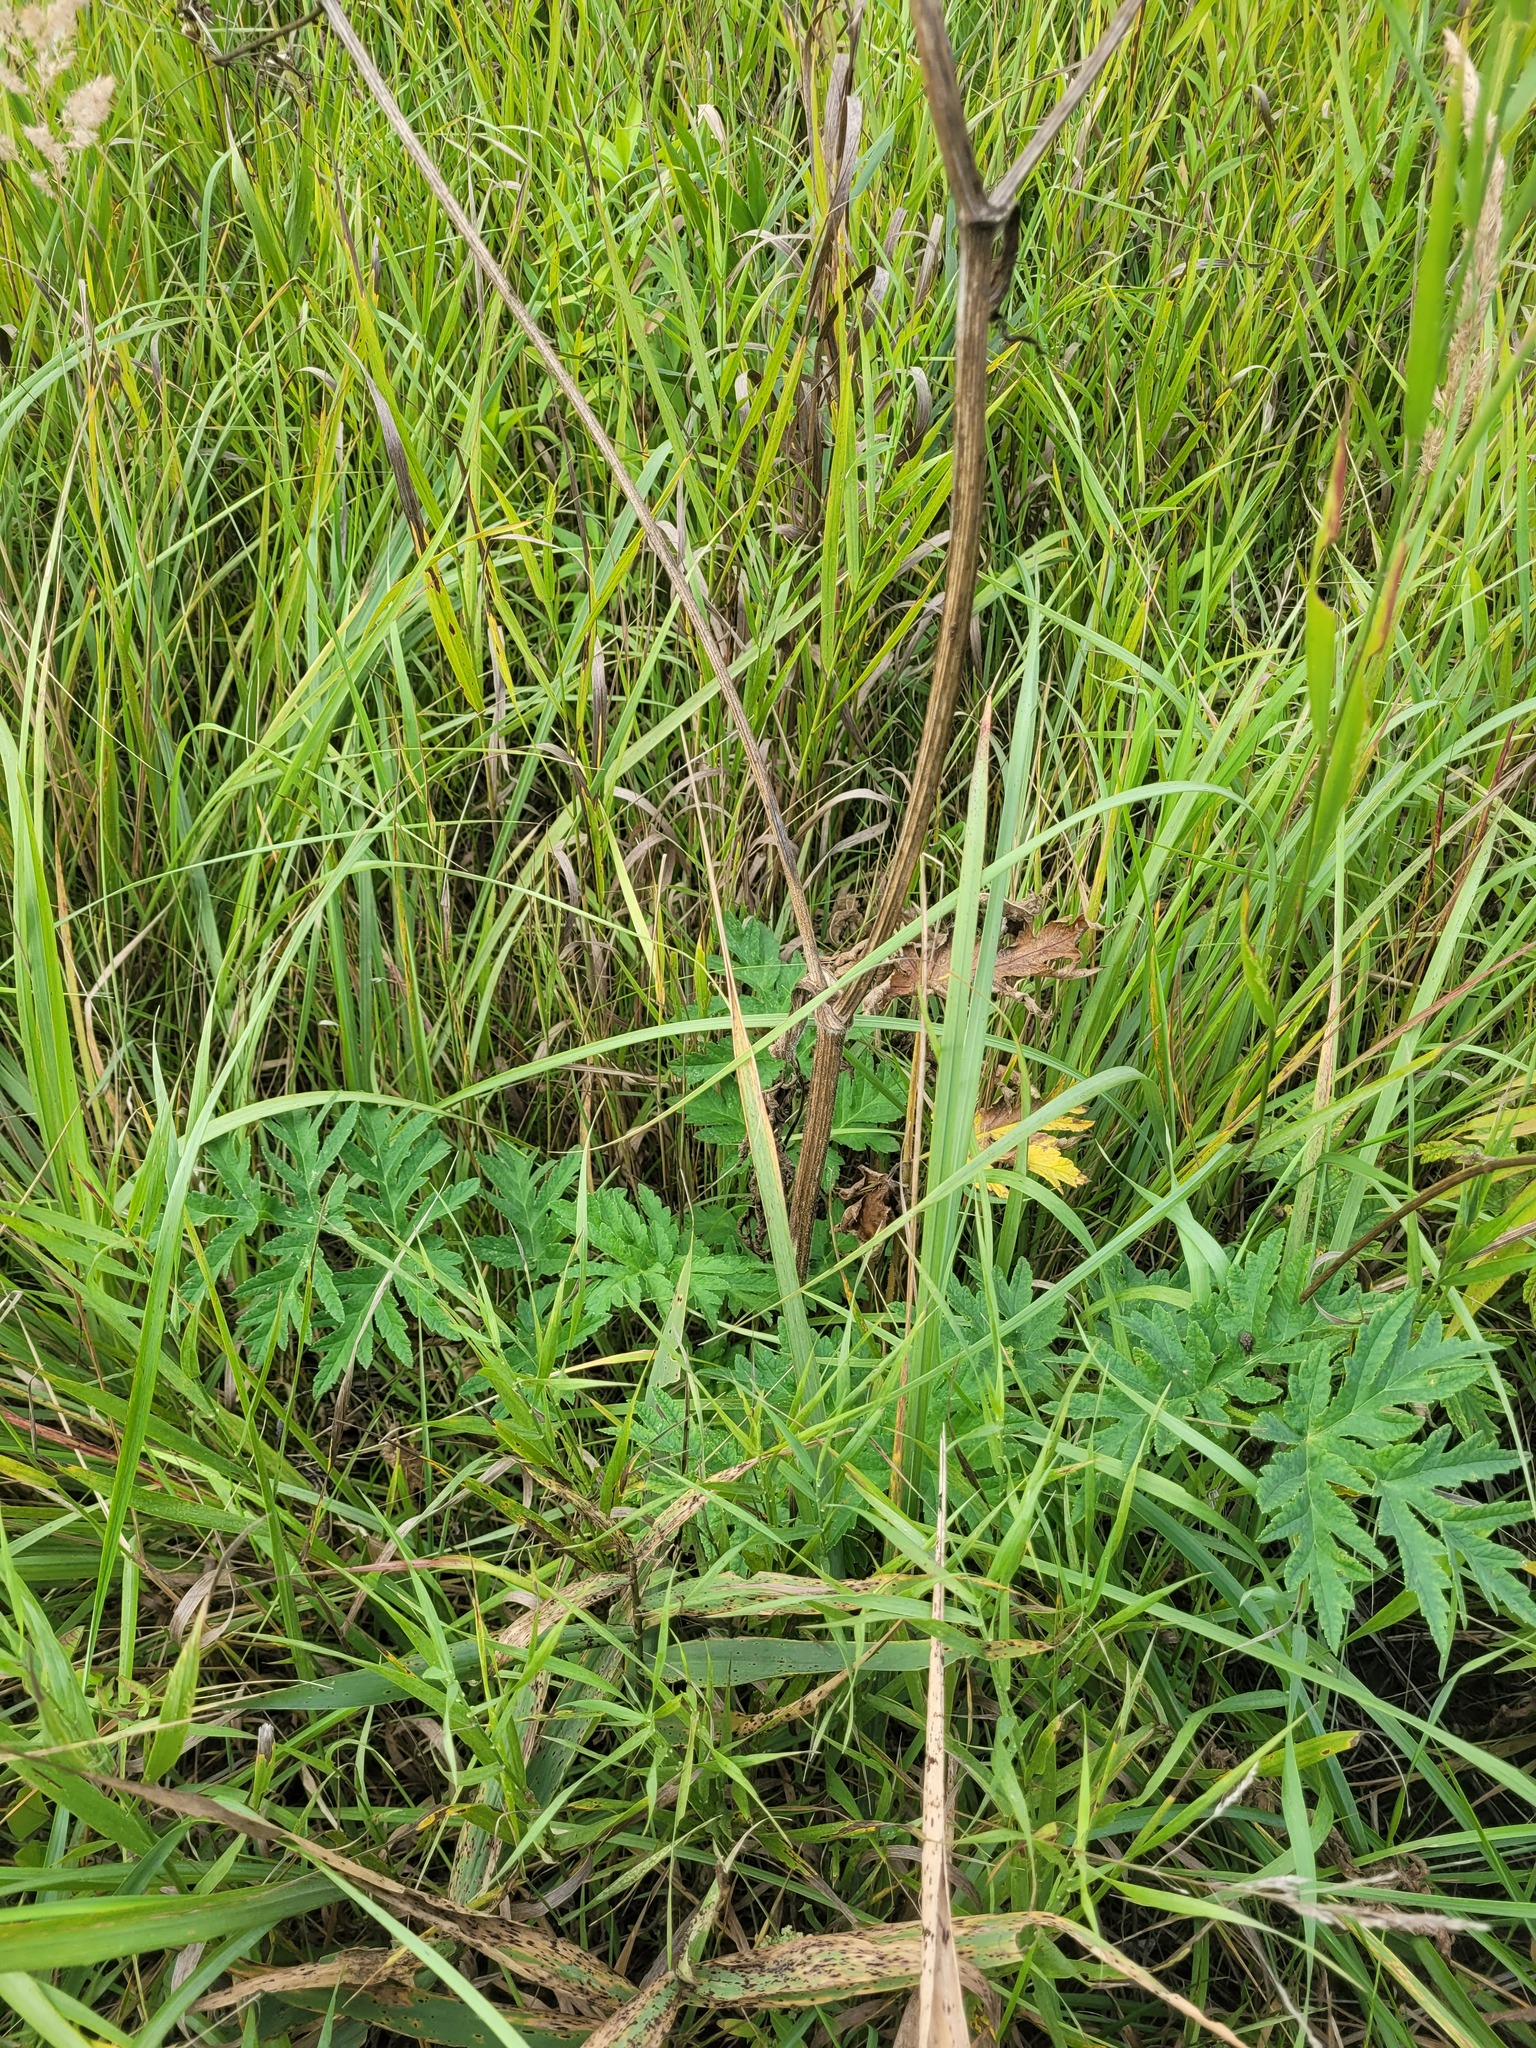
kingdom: Plantae
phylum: Tracheophyta
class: Magnoliopsida
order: Apiales
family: Apiaceae
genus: Heracleum
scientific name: Heracleum sphondylium
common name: Hogweed
